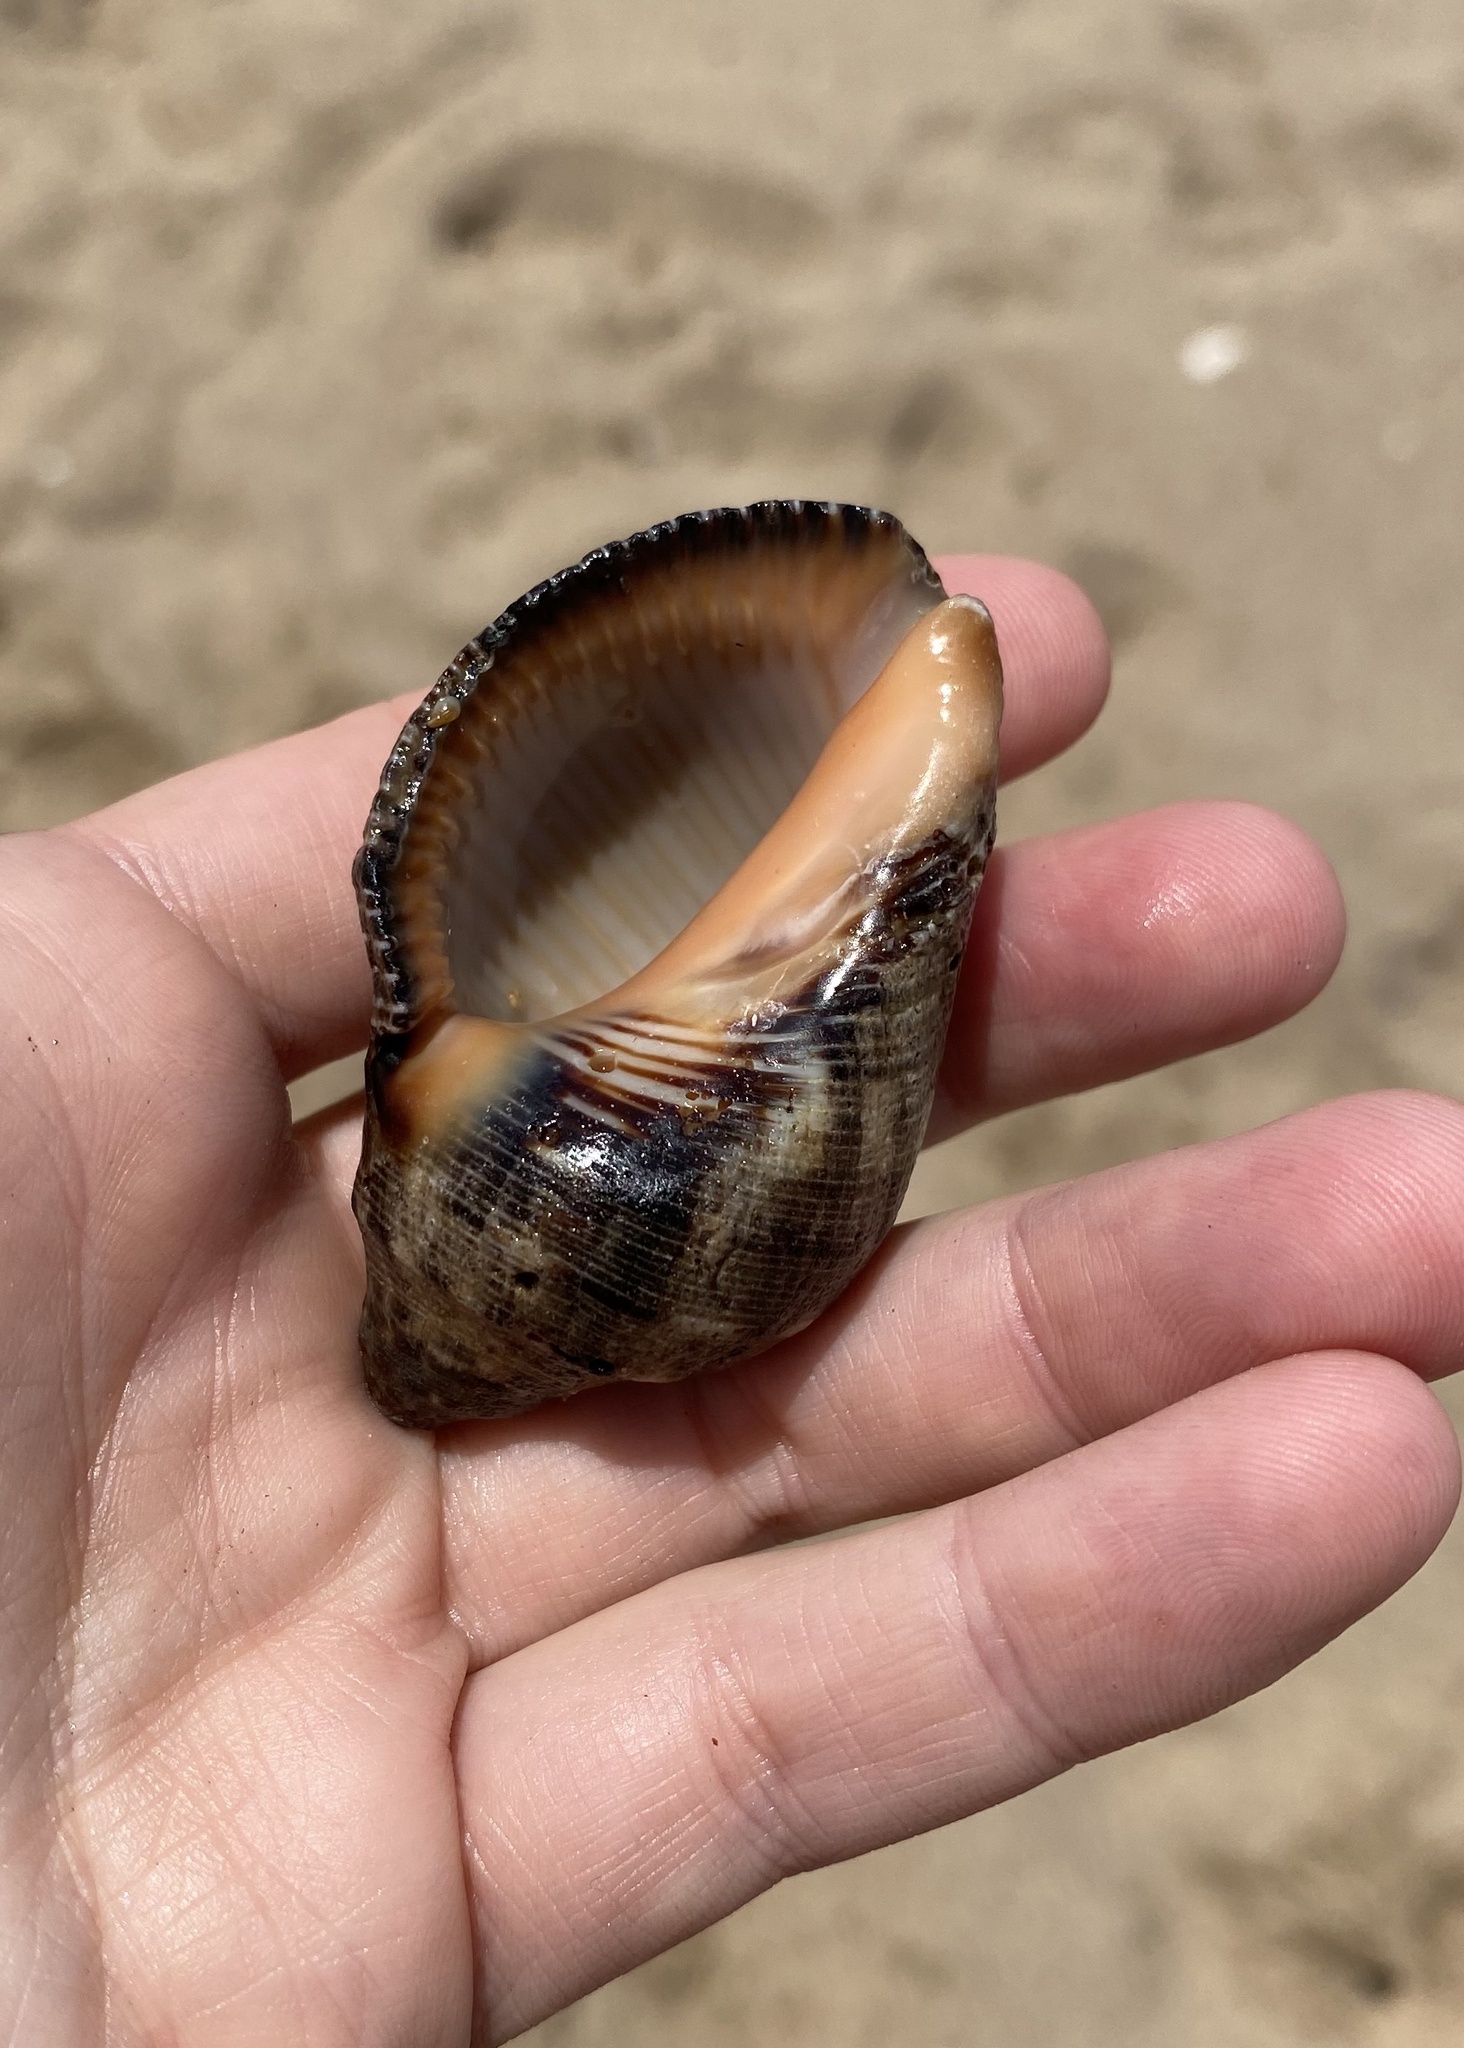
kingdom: Animalia
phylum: Mollusca
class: Gastropoda
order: Neogastropoda
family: Muricidae
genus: Purpura
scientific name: Purpura panama
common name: Rudolph's purpura
